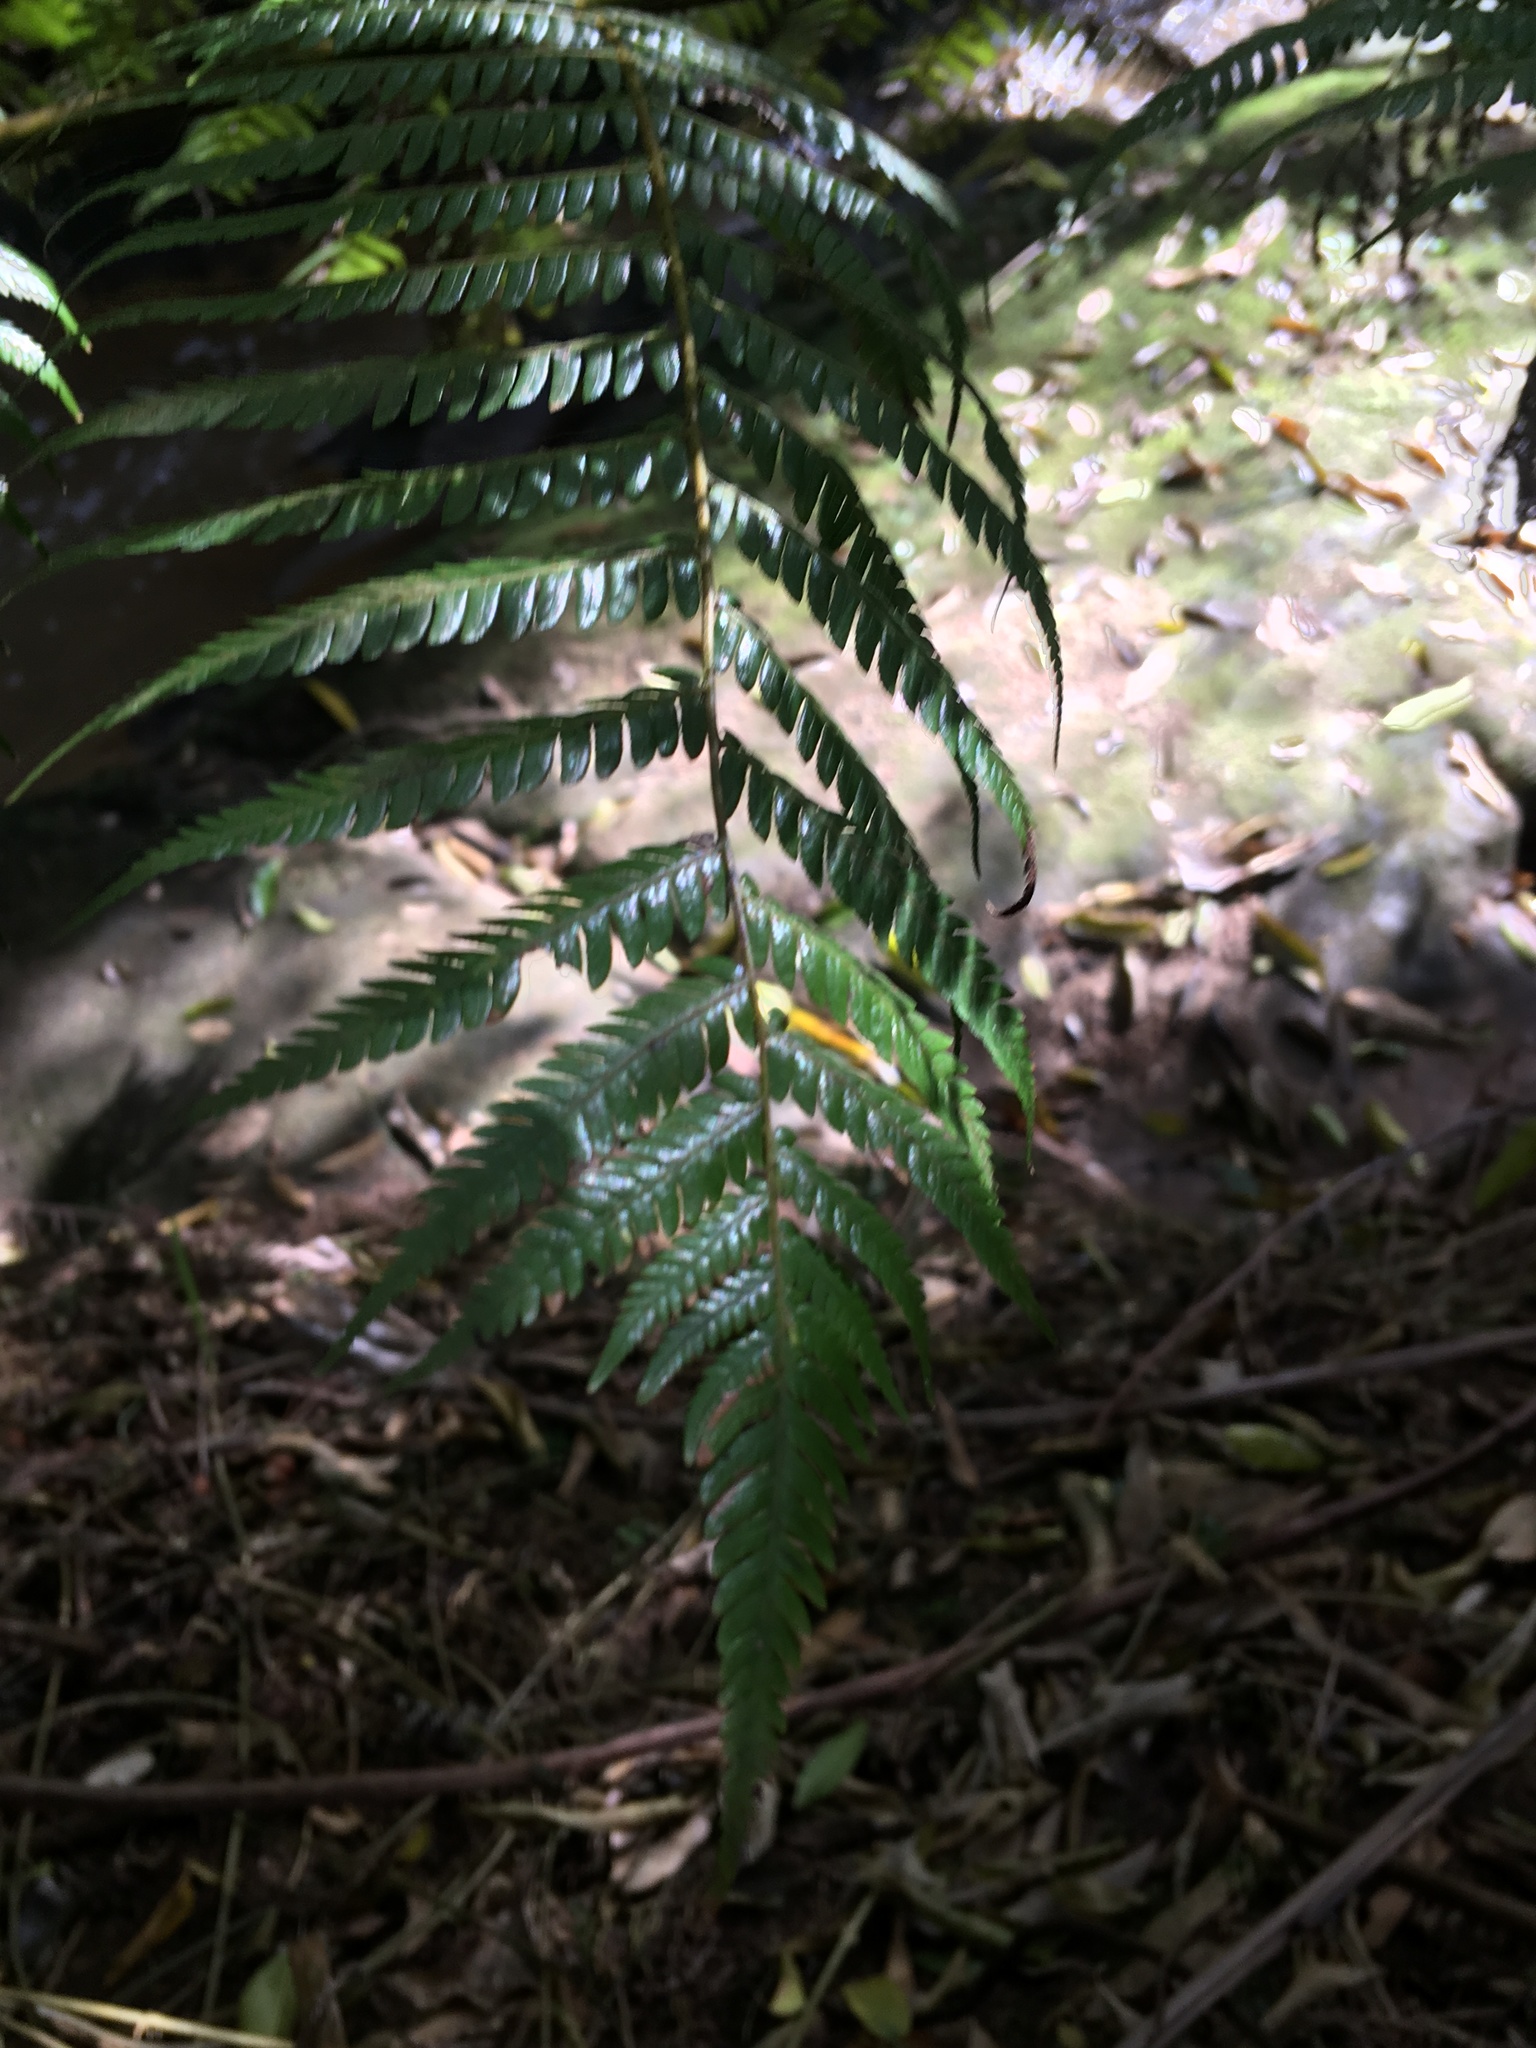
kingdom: Plantae
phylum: Tracheophyta
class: Polypodiopsida
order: Cyatheales
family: Cyatheaceae
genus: Alsophila
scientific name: Alsophila dealbata
